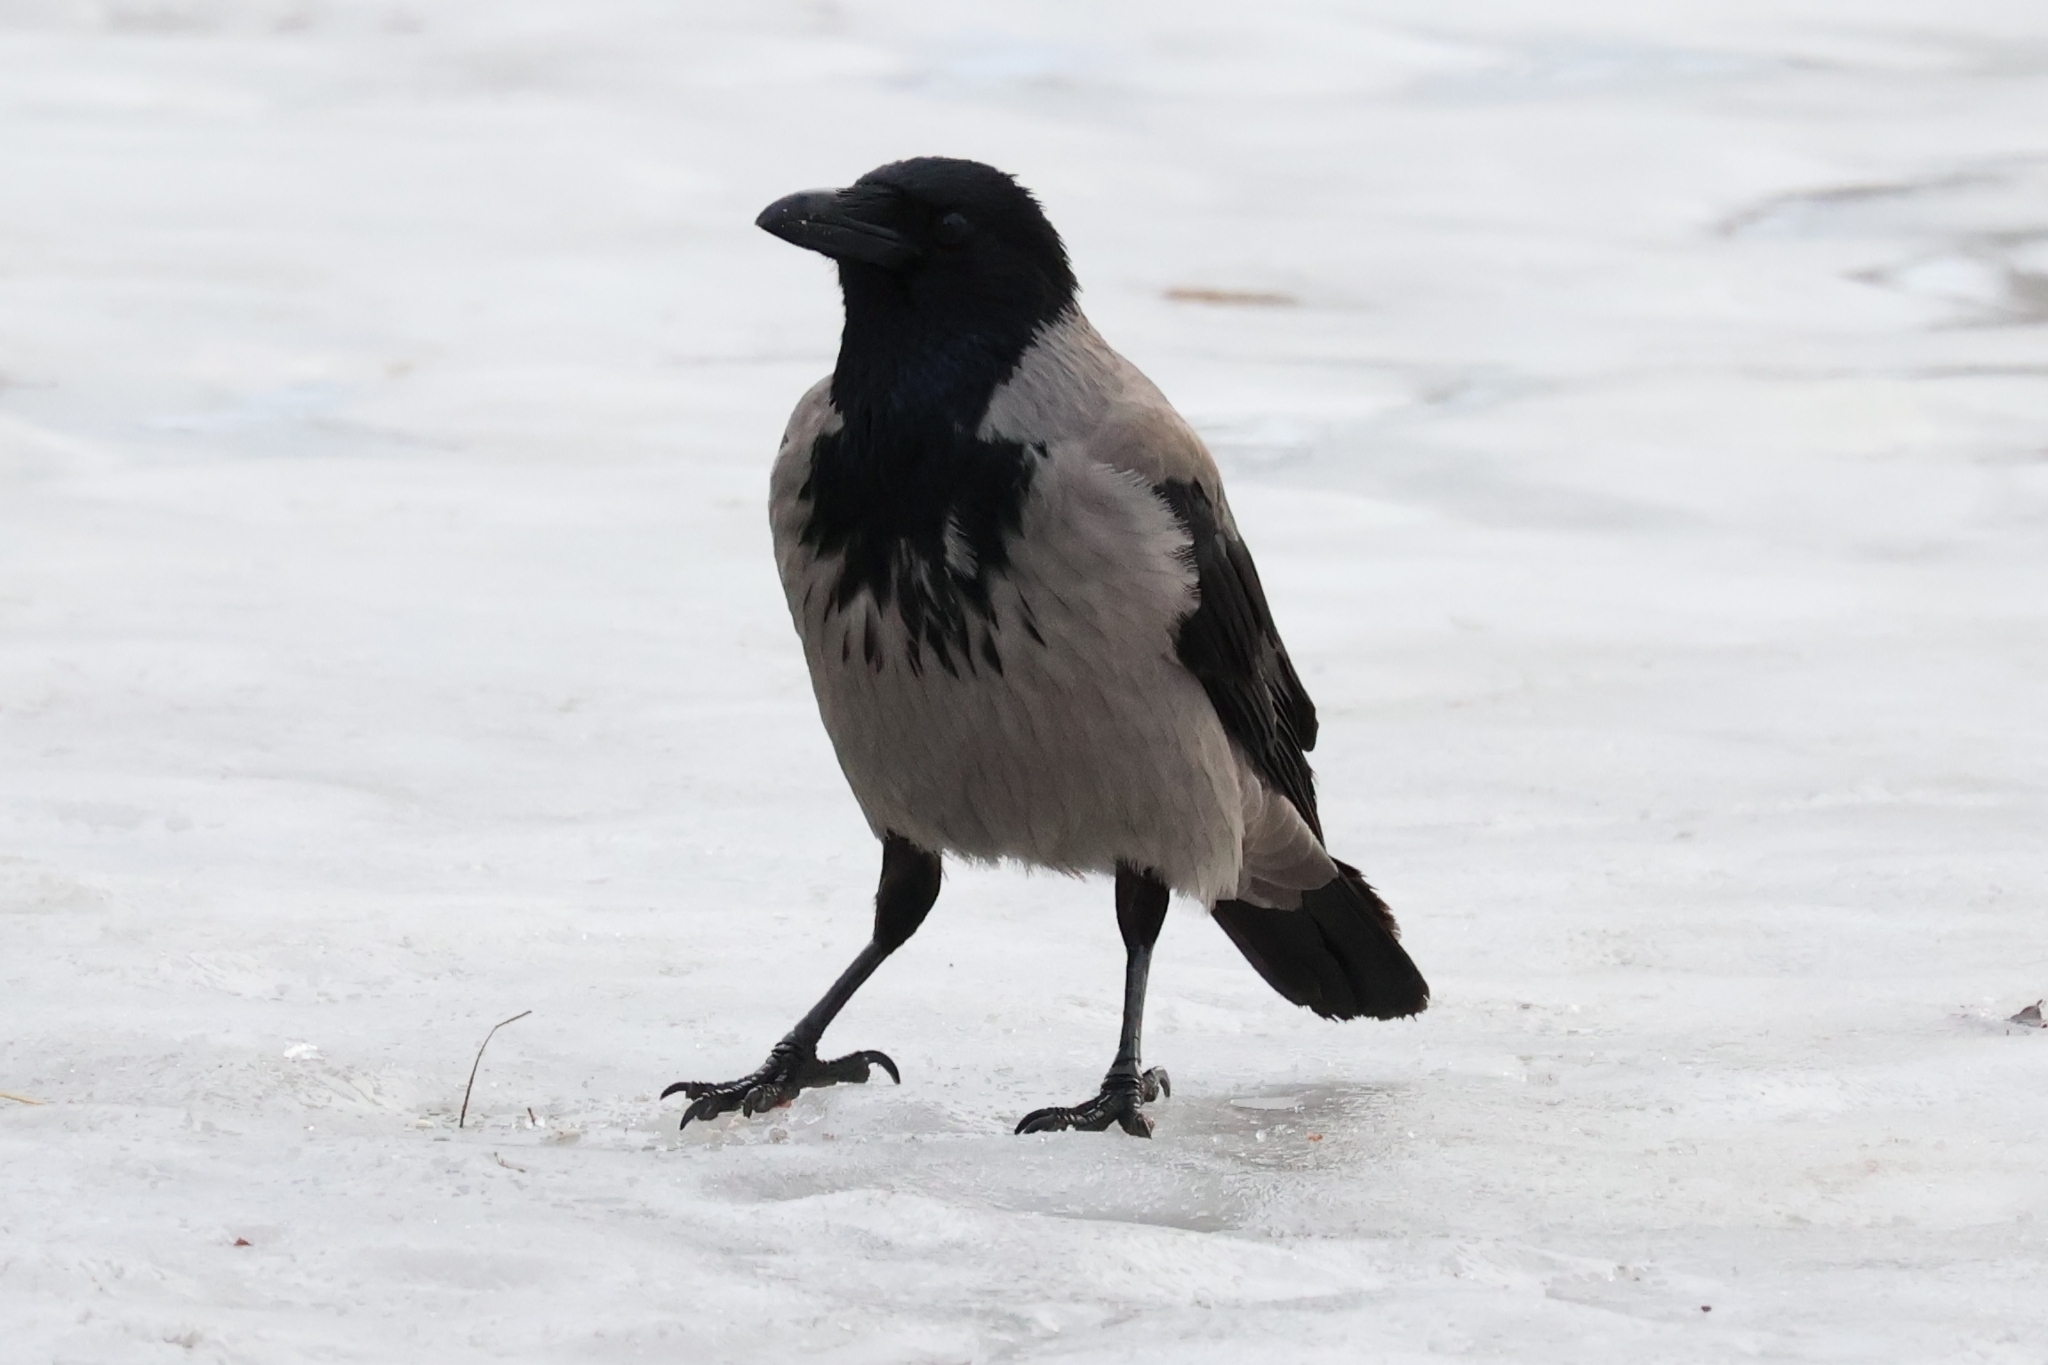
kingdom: Animalia
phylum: Chordata
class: Aves
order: Passeriformes
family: Corvidae
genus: Corvus
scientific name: Corvus cornix
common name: Hooded crow
